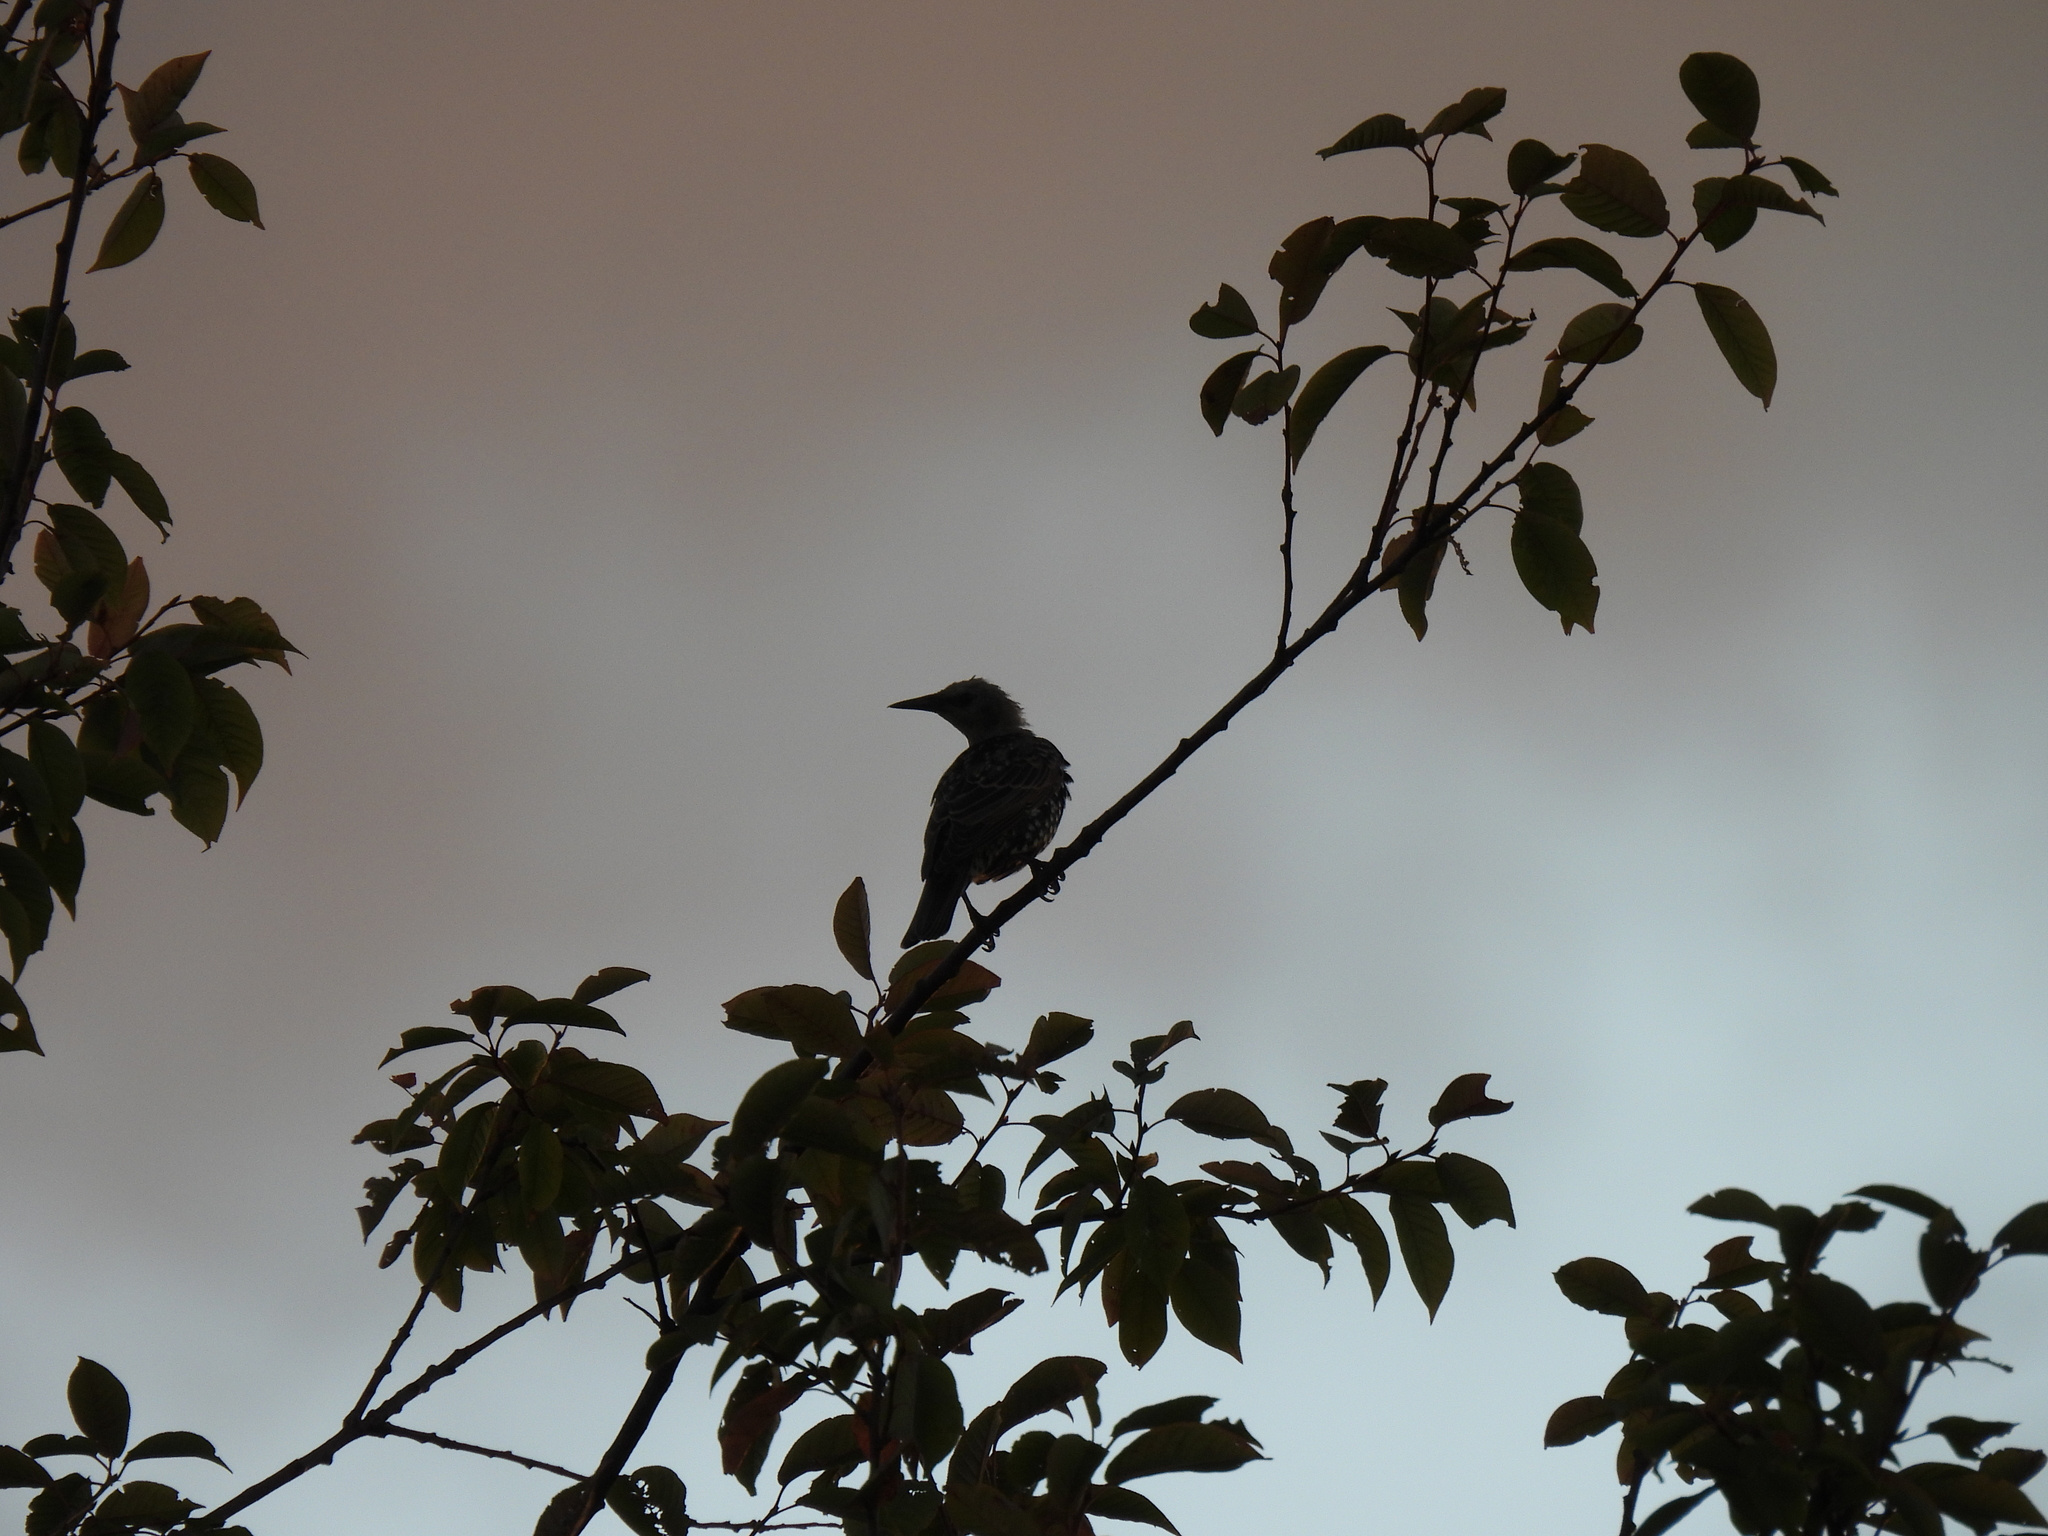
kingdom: Animalia
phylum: Chordata
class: Aves
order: Passeriformes
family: Sturnidae
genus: Sturnus
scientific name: Sturnus vulgaris
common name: Common starling
